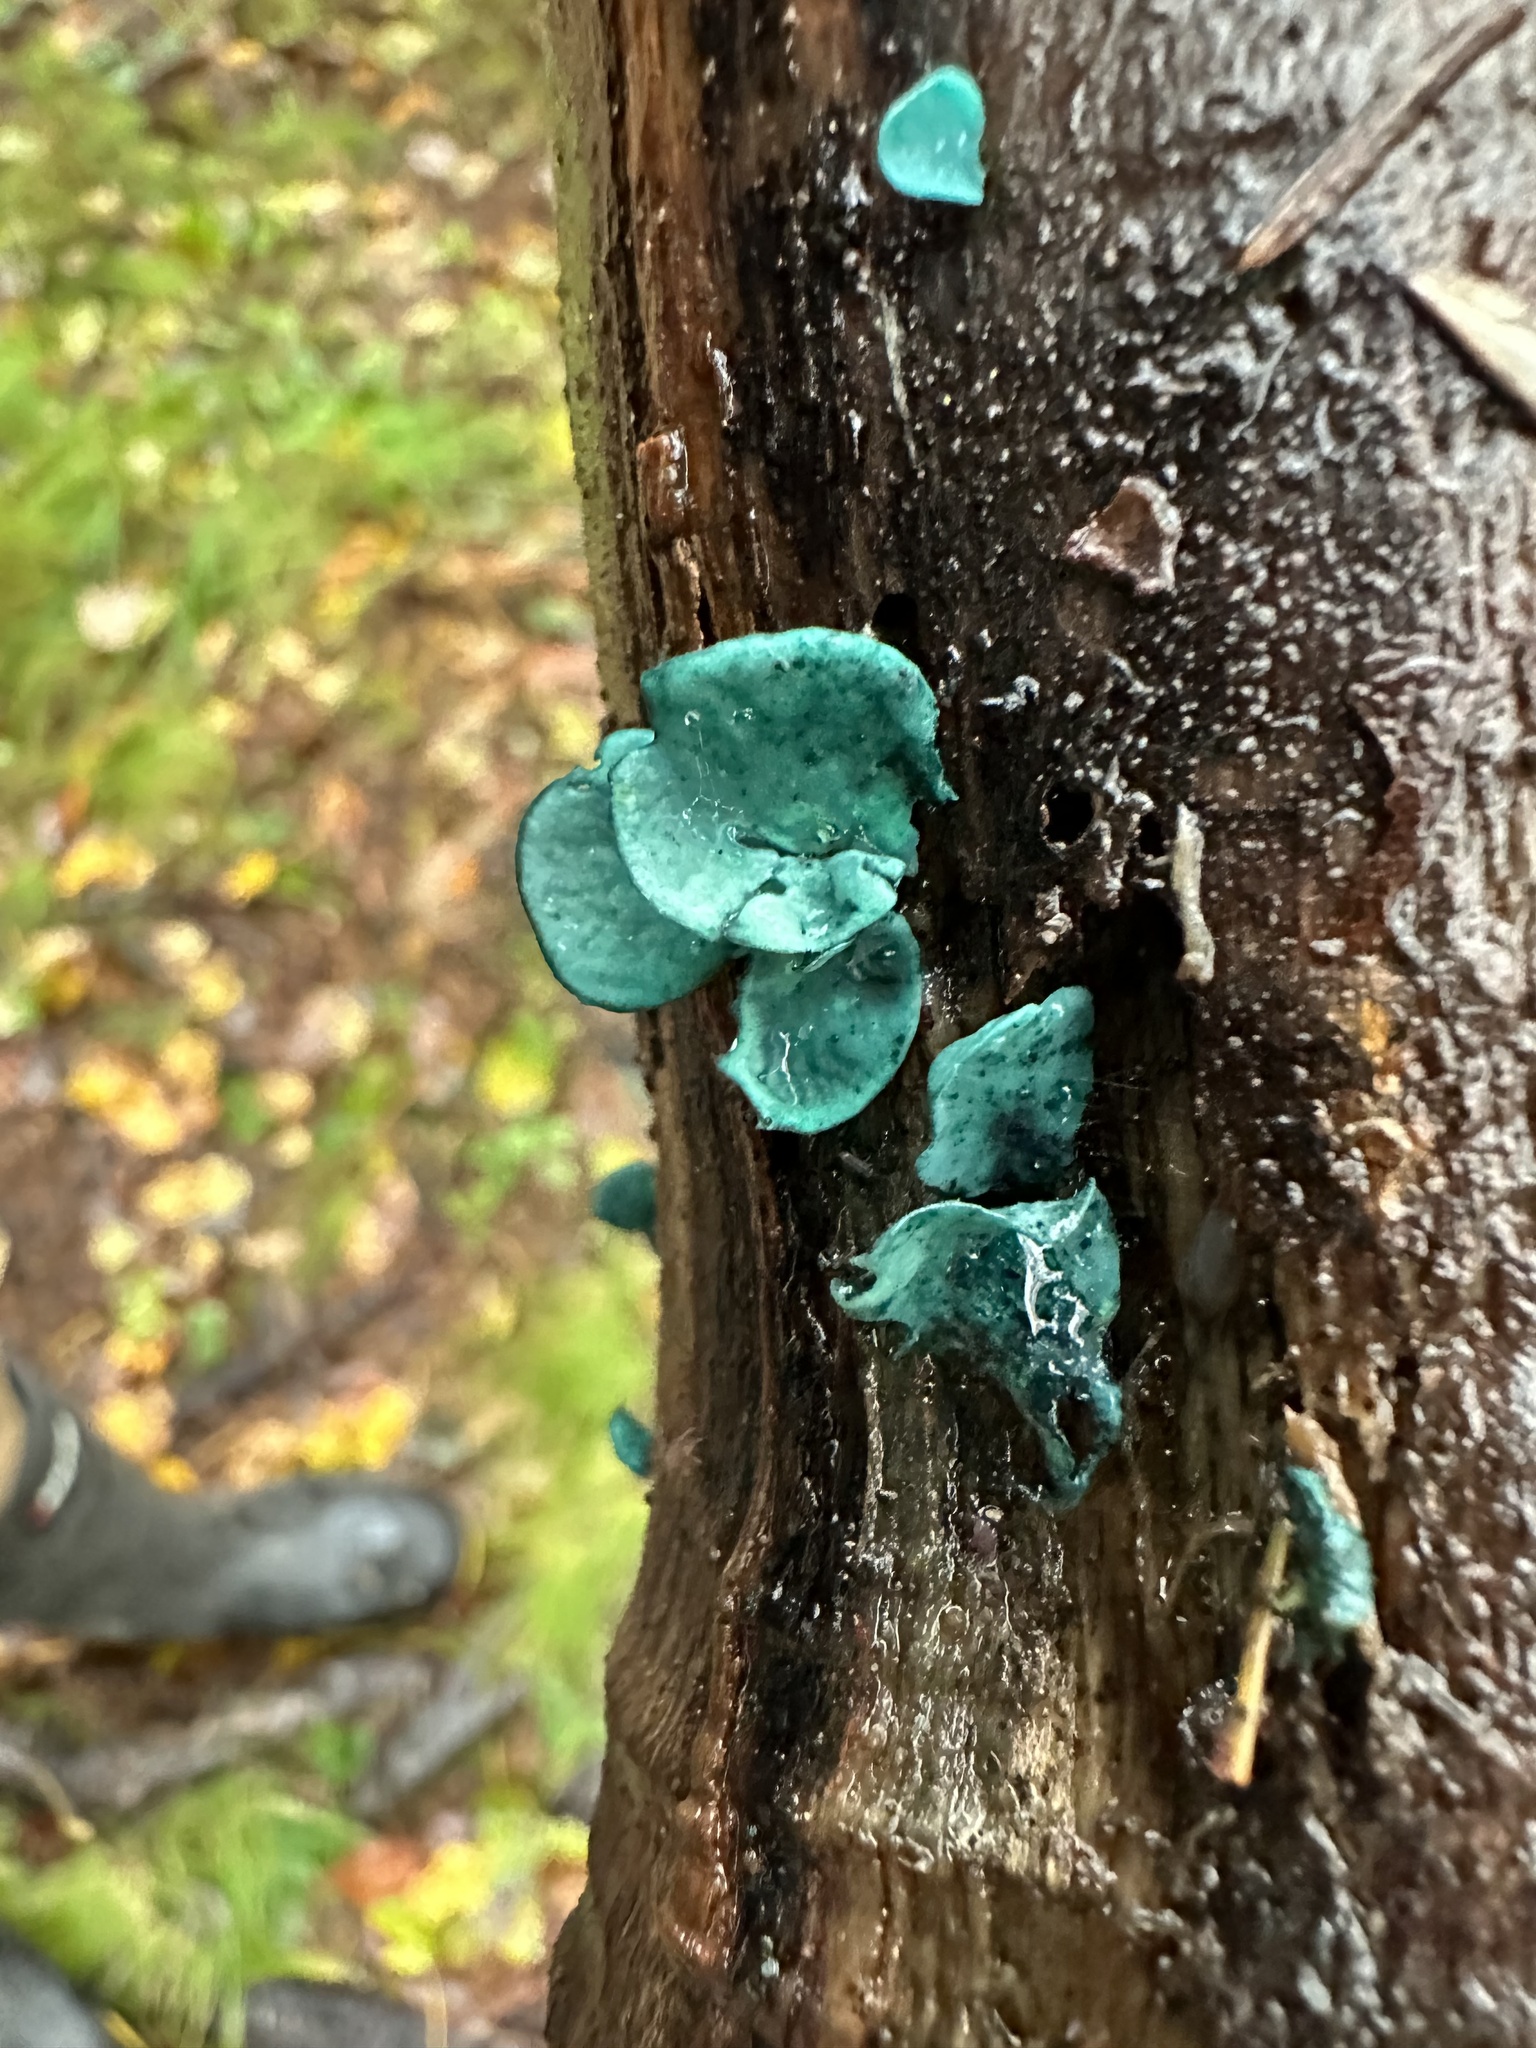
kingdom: Fungi
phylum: Ascomycota
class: Leotiomycetes
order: Helotiales
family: Chlorociboriaceae
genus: Chlorociboria
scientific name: Chlorociboria aeruginascens
